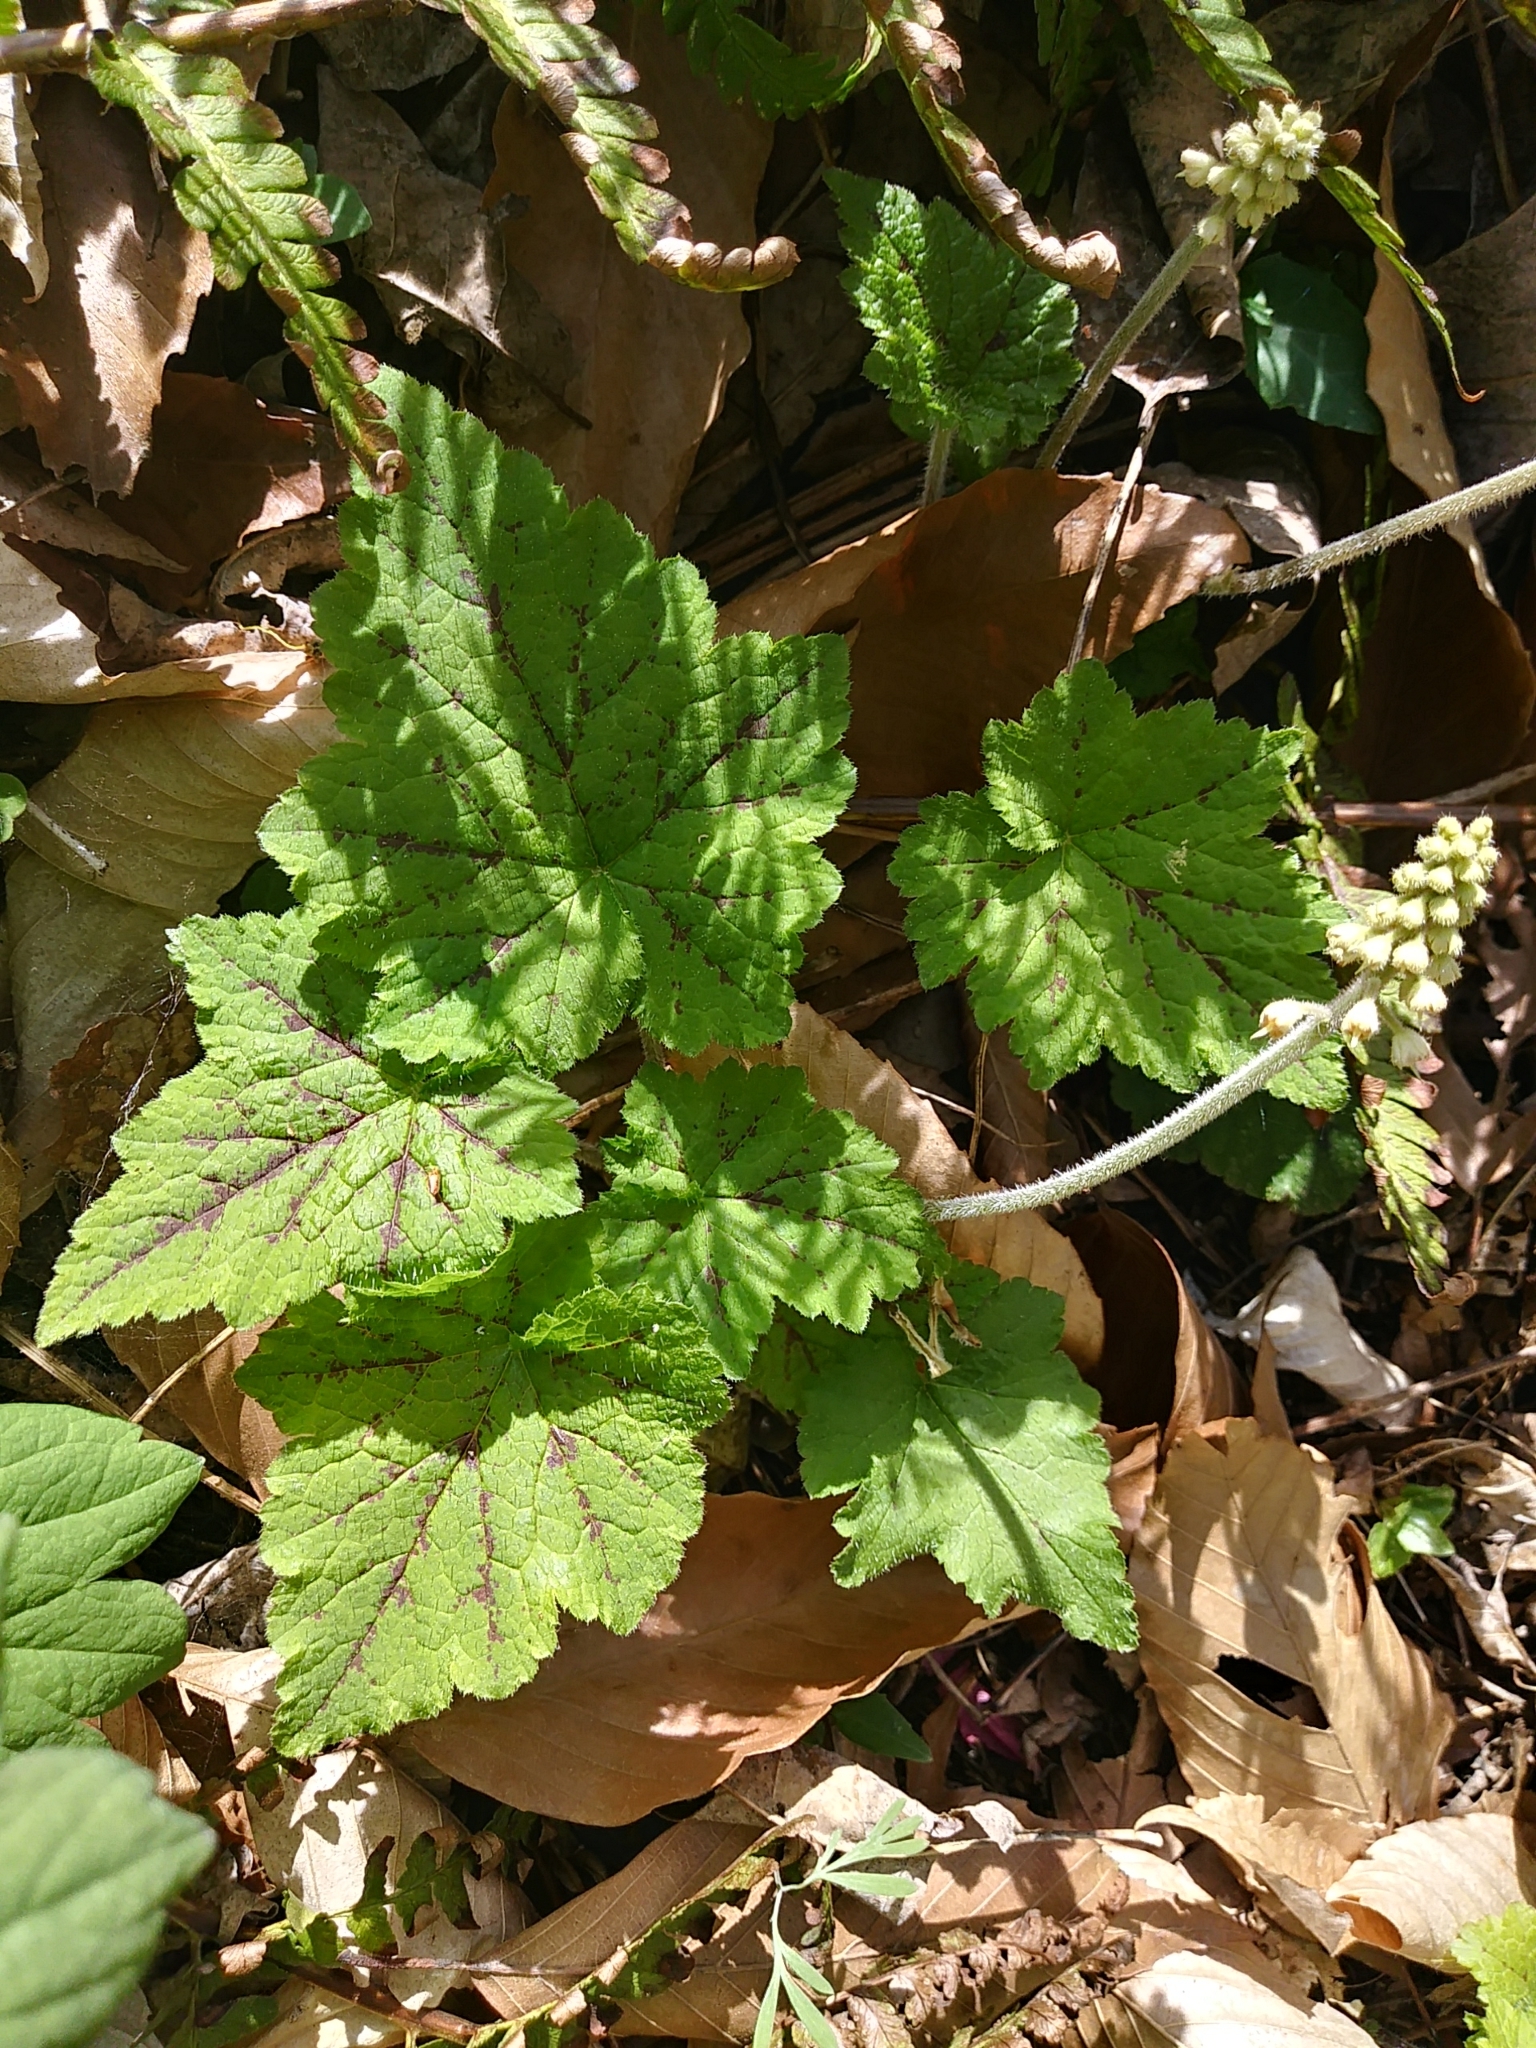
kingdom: Plantae
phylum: Tracheophyta
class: Magnoliopsida
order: Saxifragales
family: Saxifragaceae
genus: Tiarella
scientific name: Tiarella stolonifera
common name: Stoloniferous foamflower
